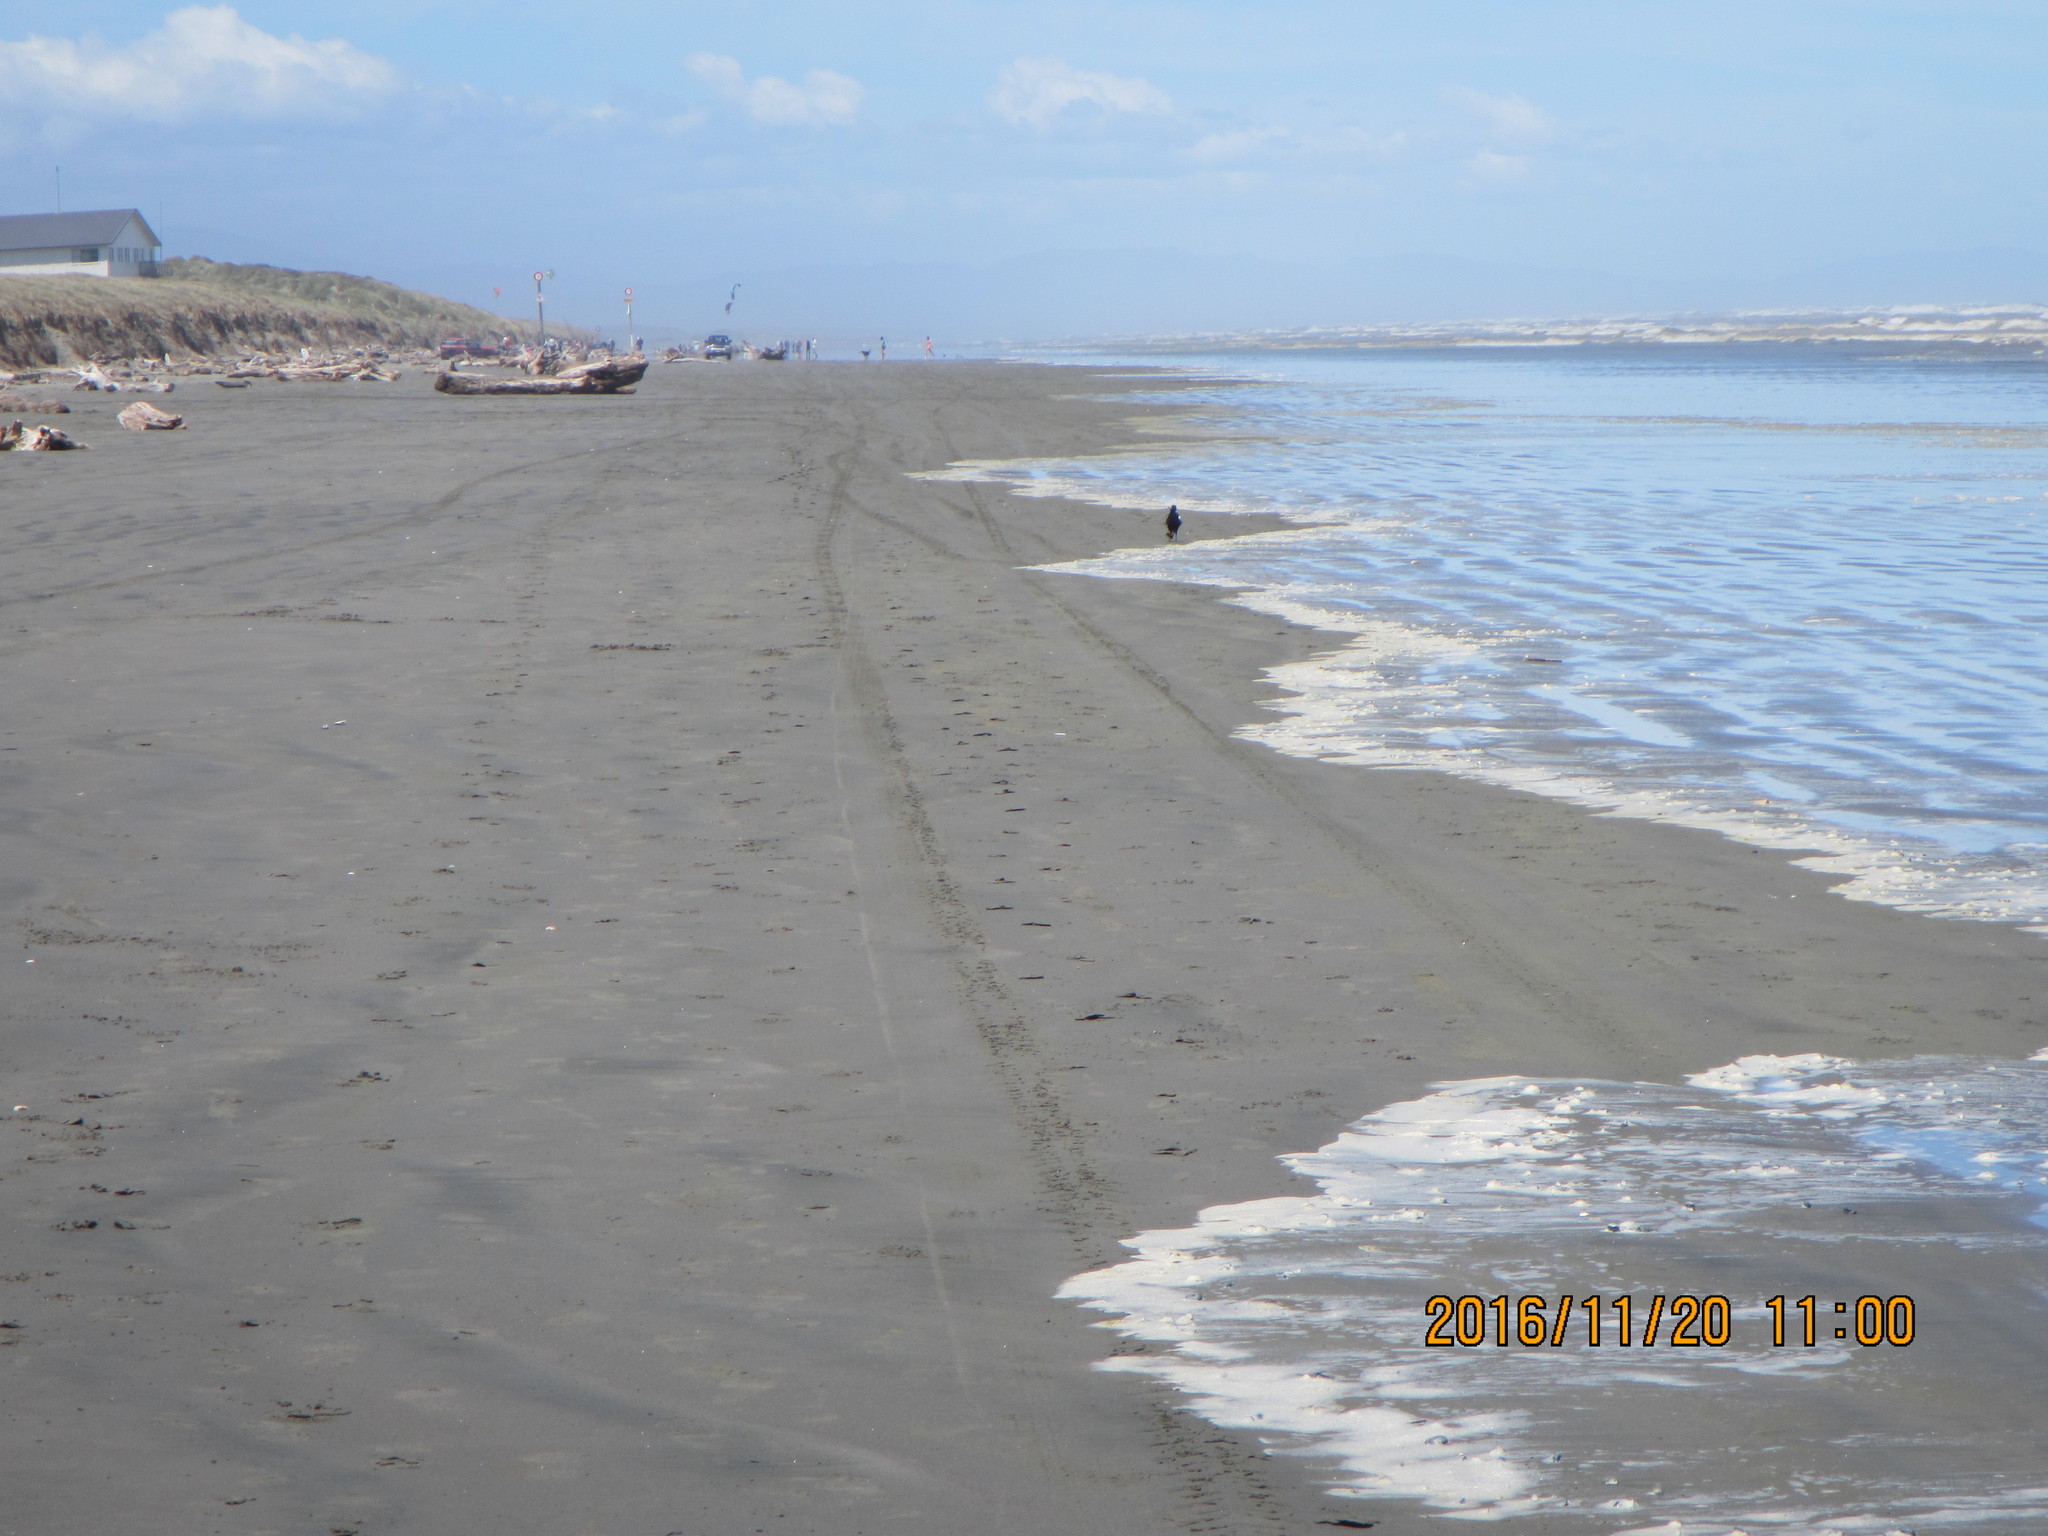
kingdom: Animalia
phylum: Chordata
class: Aves
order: Passeriformes
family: Cracticidae
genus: Gymnorhina
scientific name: Gymnorhina tibicen
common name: Australian magpie
